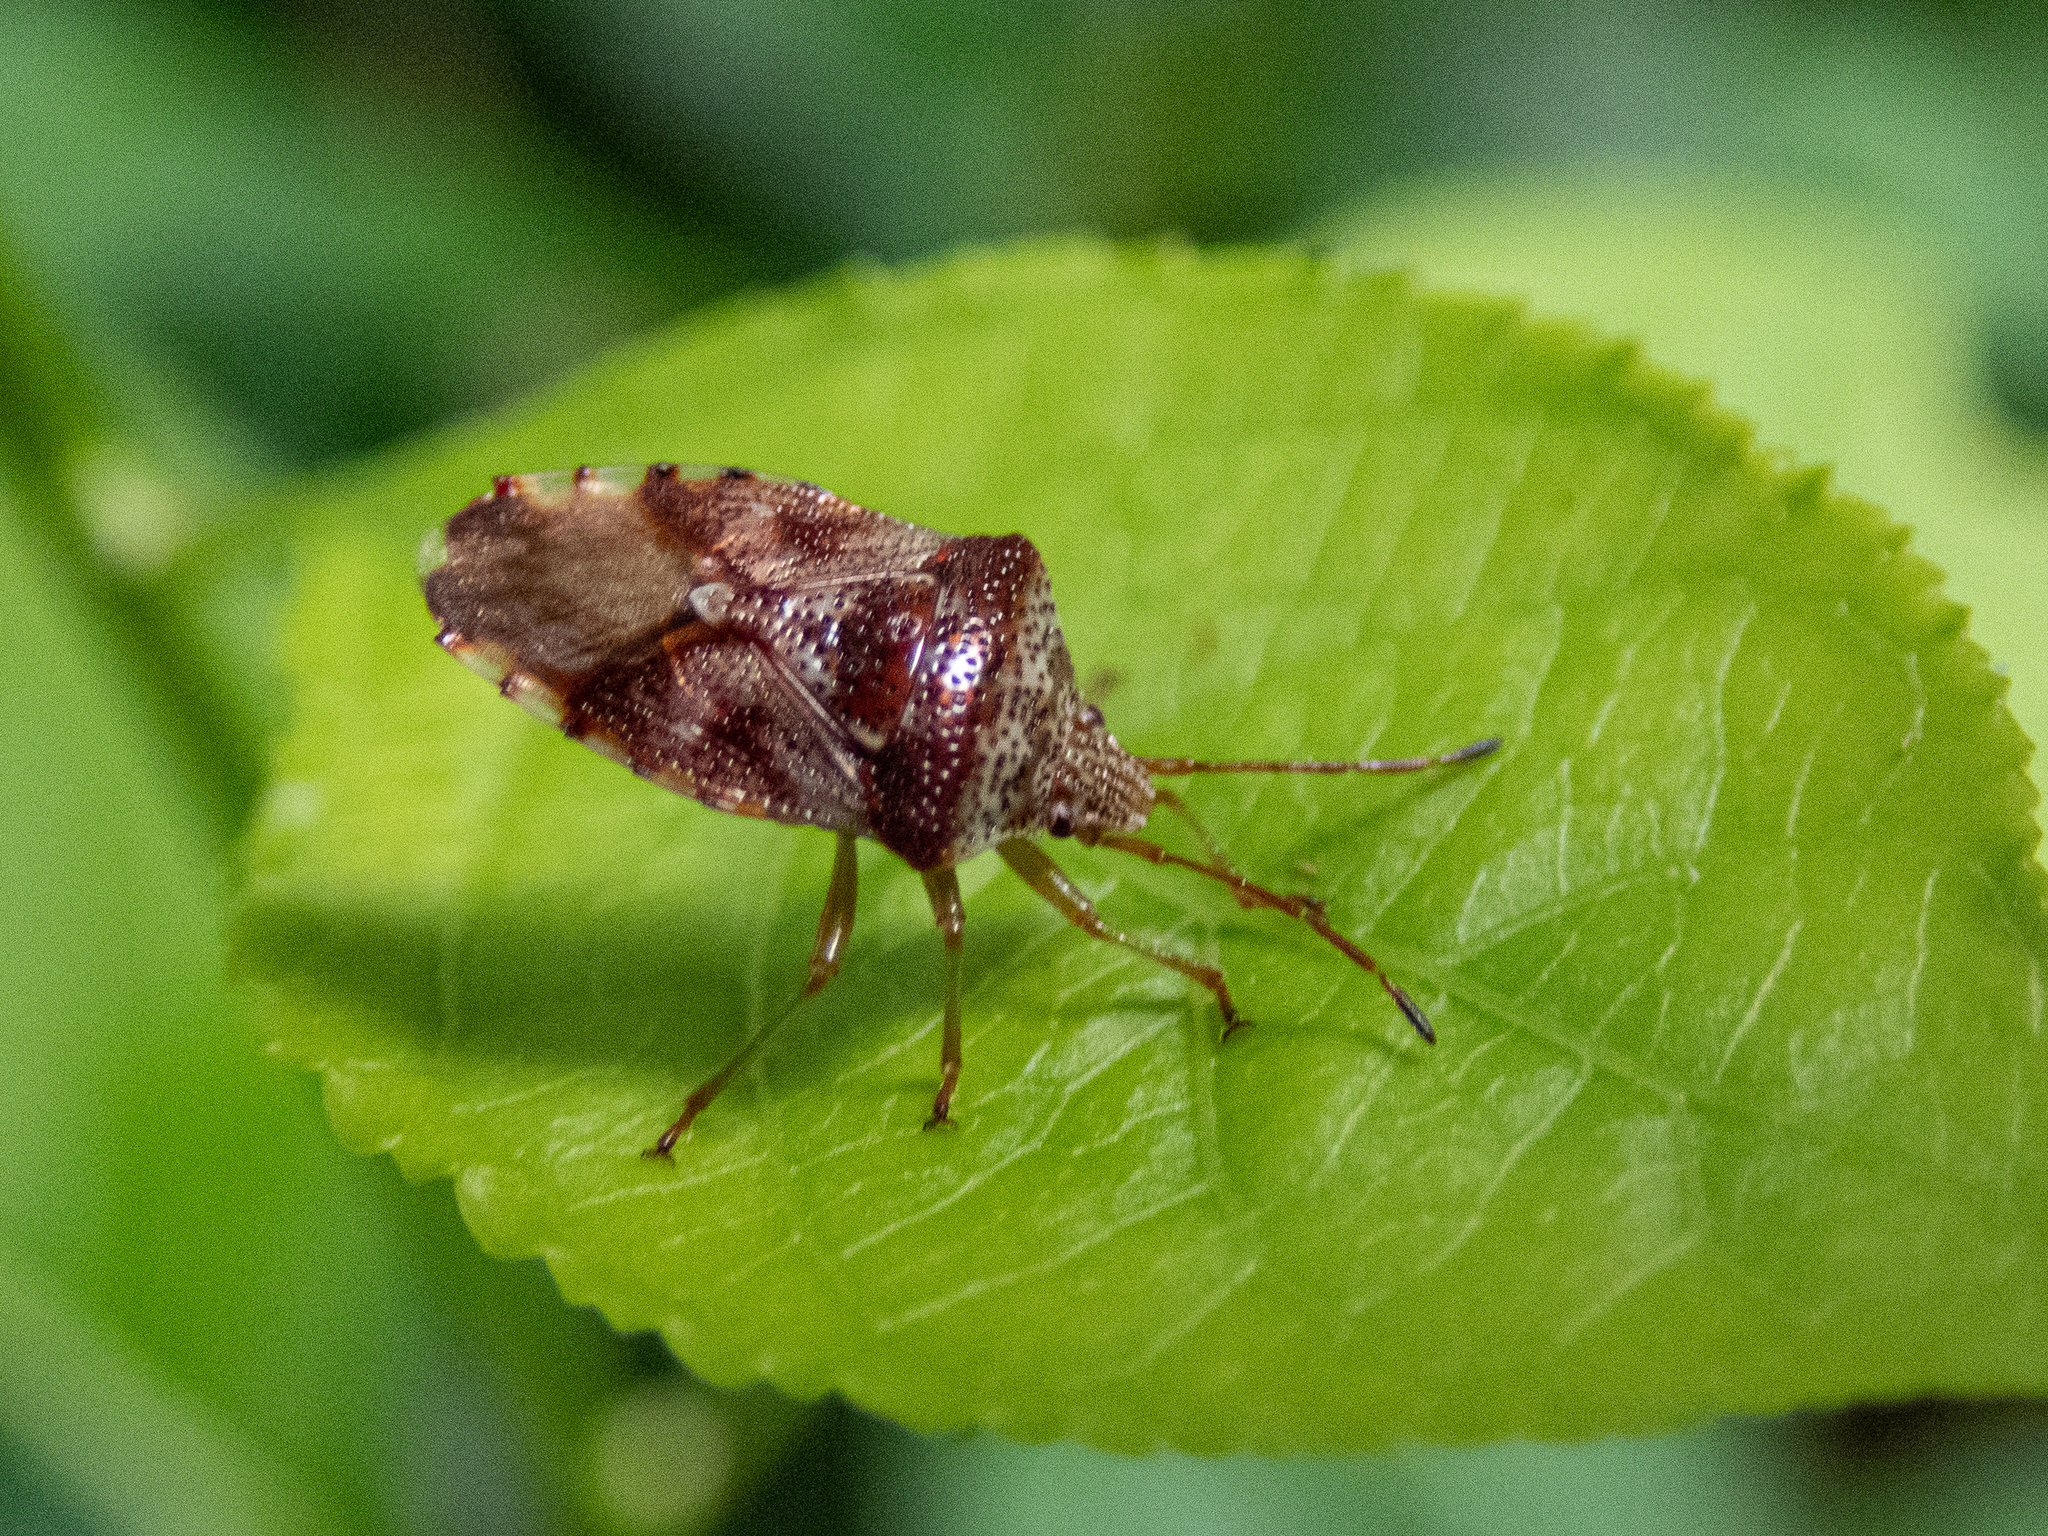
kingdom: Animalia
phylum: Arthropoda
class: Insecta
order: Hemiptera
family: Acanthosomatidae
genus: Elasmucha
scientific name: Elasmucha lateralis
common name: Shield bug
